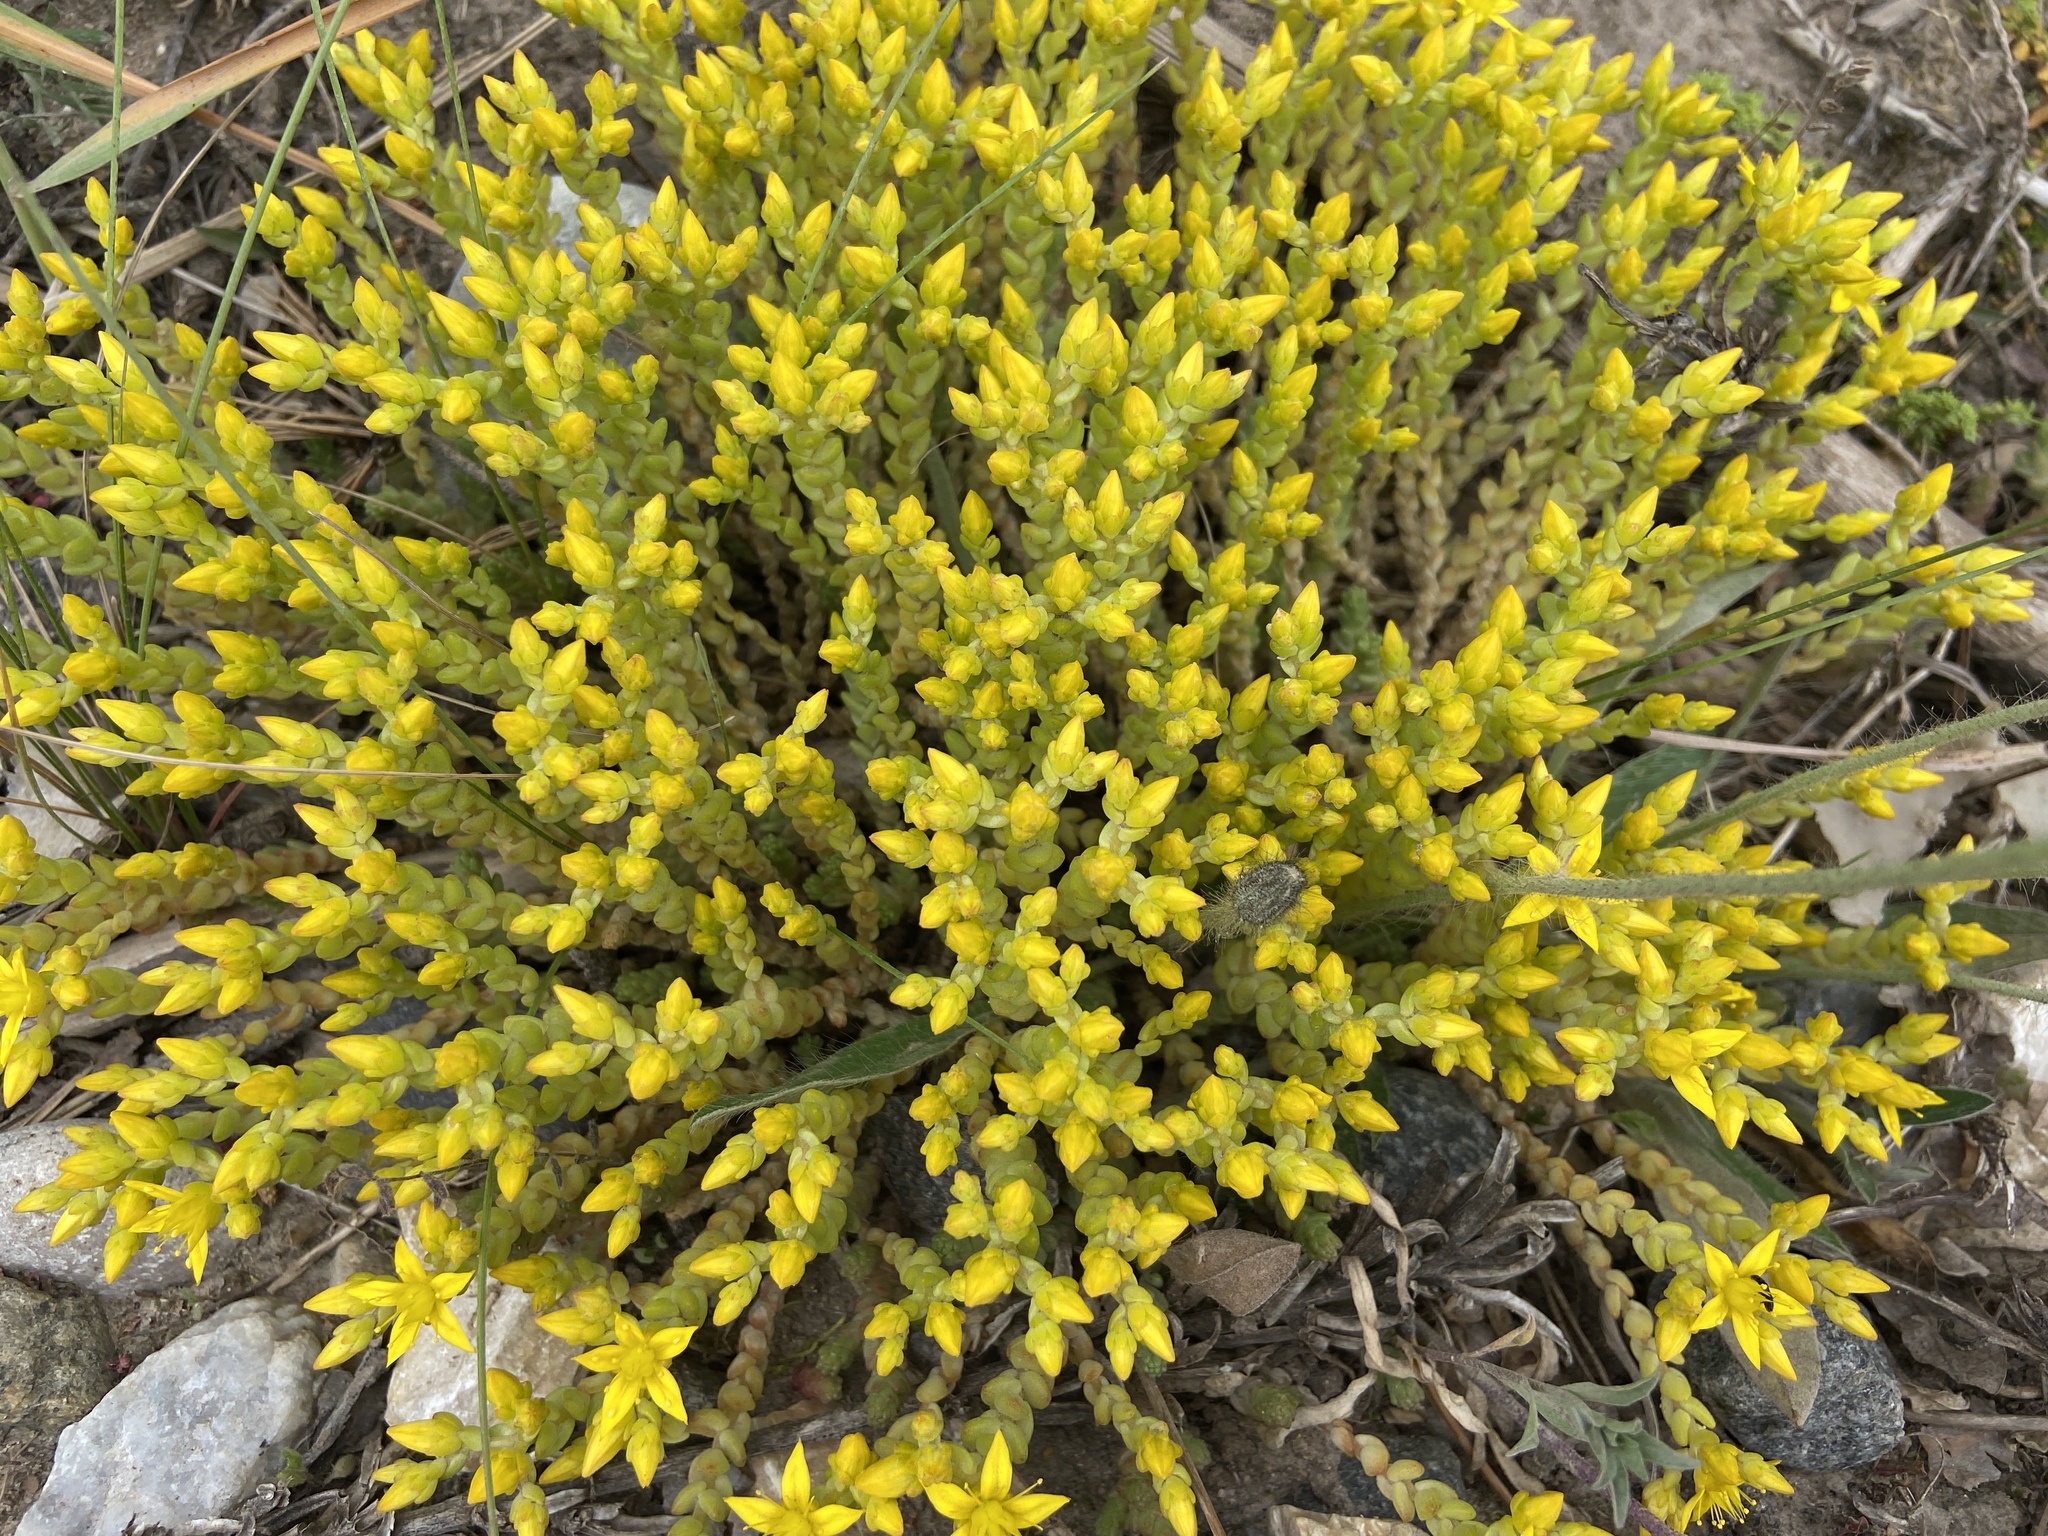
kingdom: Plantae
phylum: Tracheophyta
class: Magnoliopsida
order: Saxifragales
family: Crassulaceae
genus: Sedum
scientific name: Sedum acre
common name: Biting stonecrop
